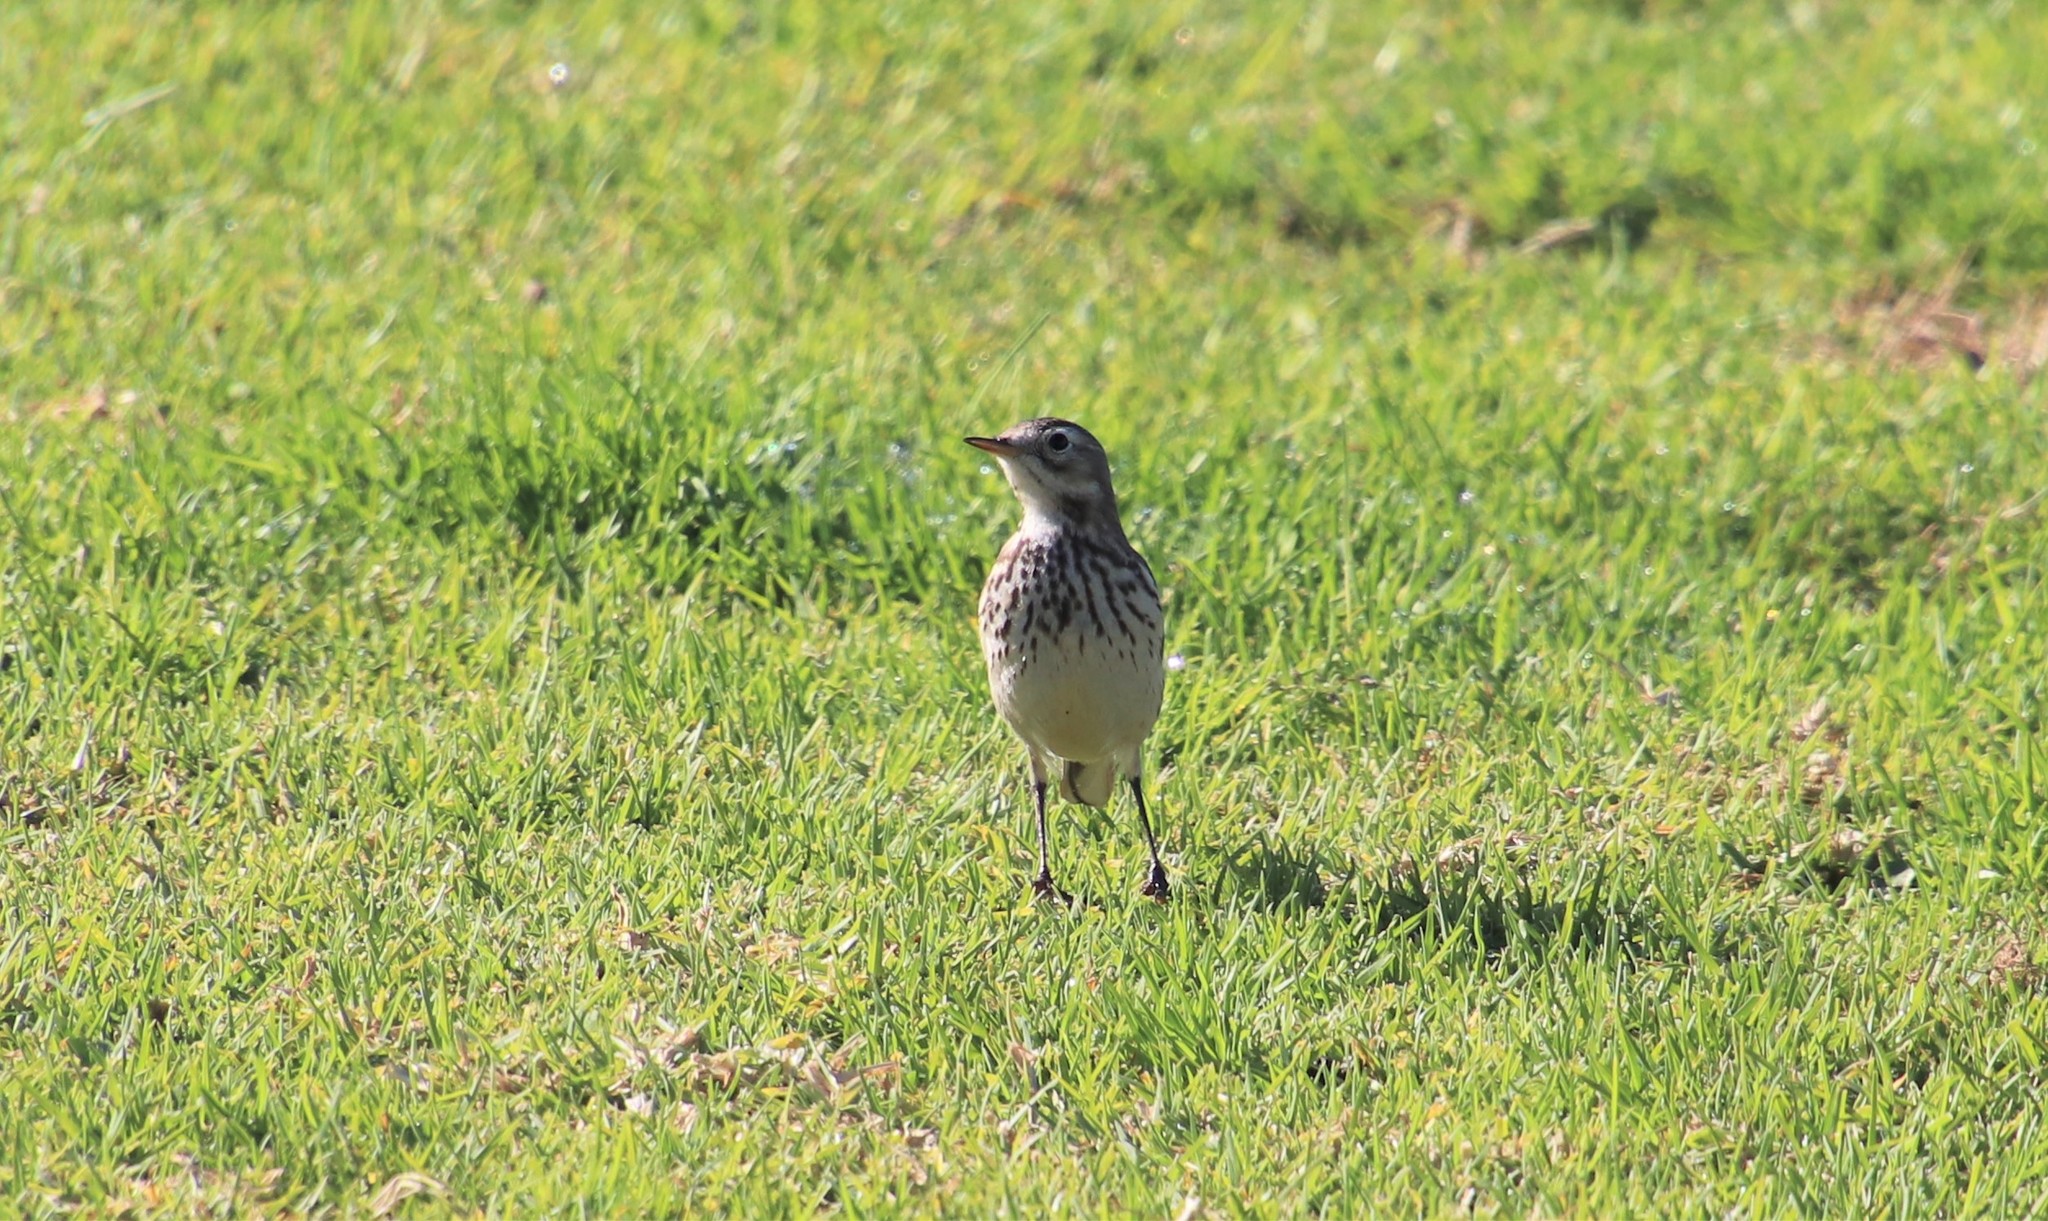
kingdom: Animalia
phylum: Chordata
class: Aves
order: Passeriformes
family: Motacillidae
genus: Anthus
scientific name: Anthus rubescens
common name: Buff-bellied pipit
